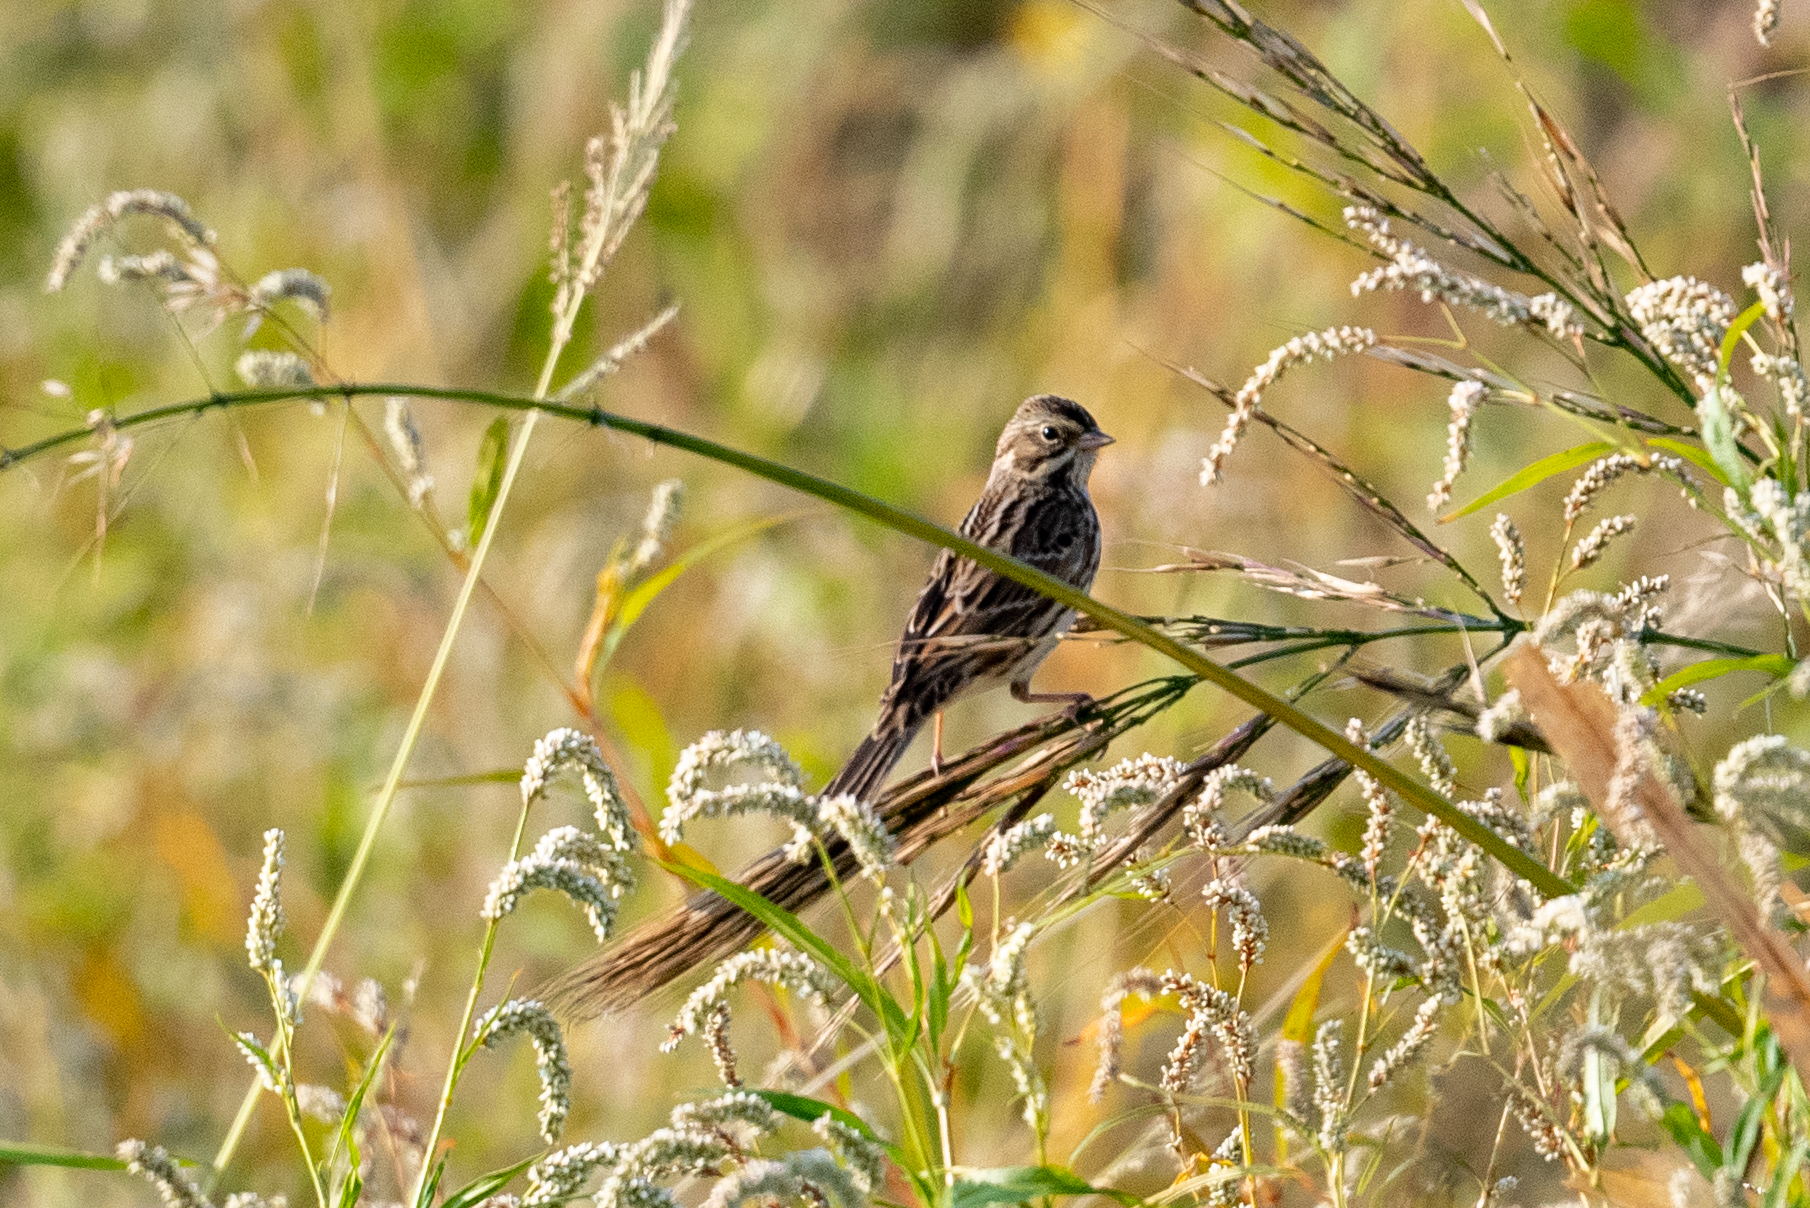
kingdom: Animalia
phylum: Chordata
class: Aves
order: Passeriformes
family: Passerellidae
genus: Passerculus
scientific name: Passerculus sandwichensis
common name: Savannah sparrow
